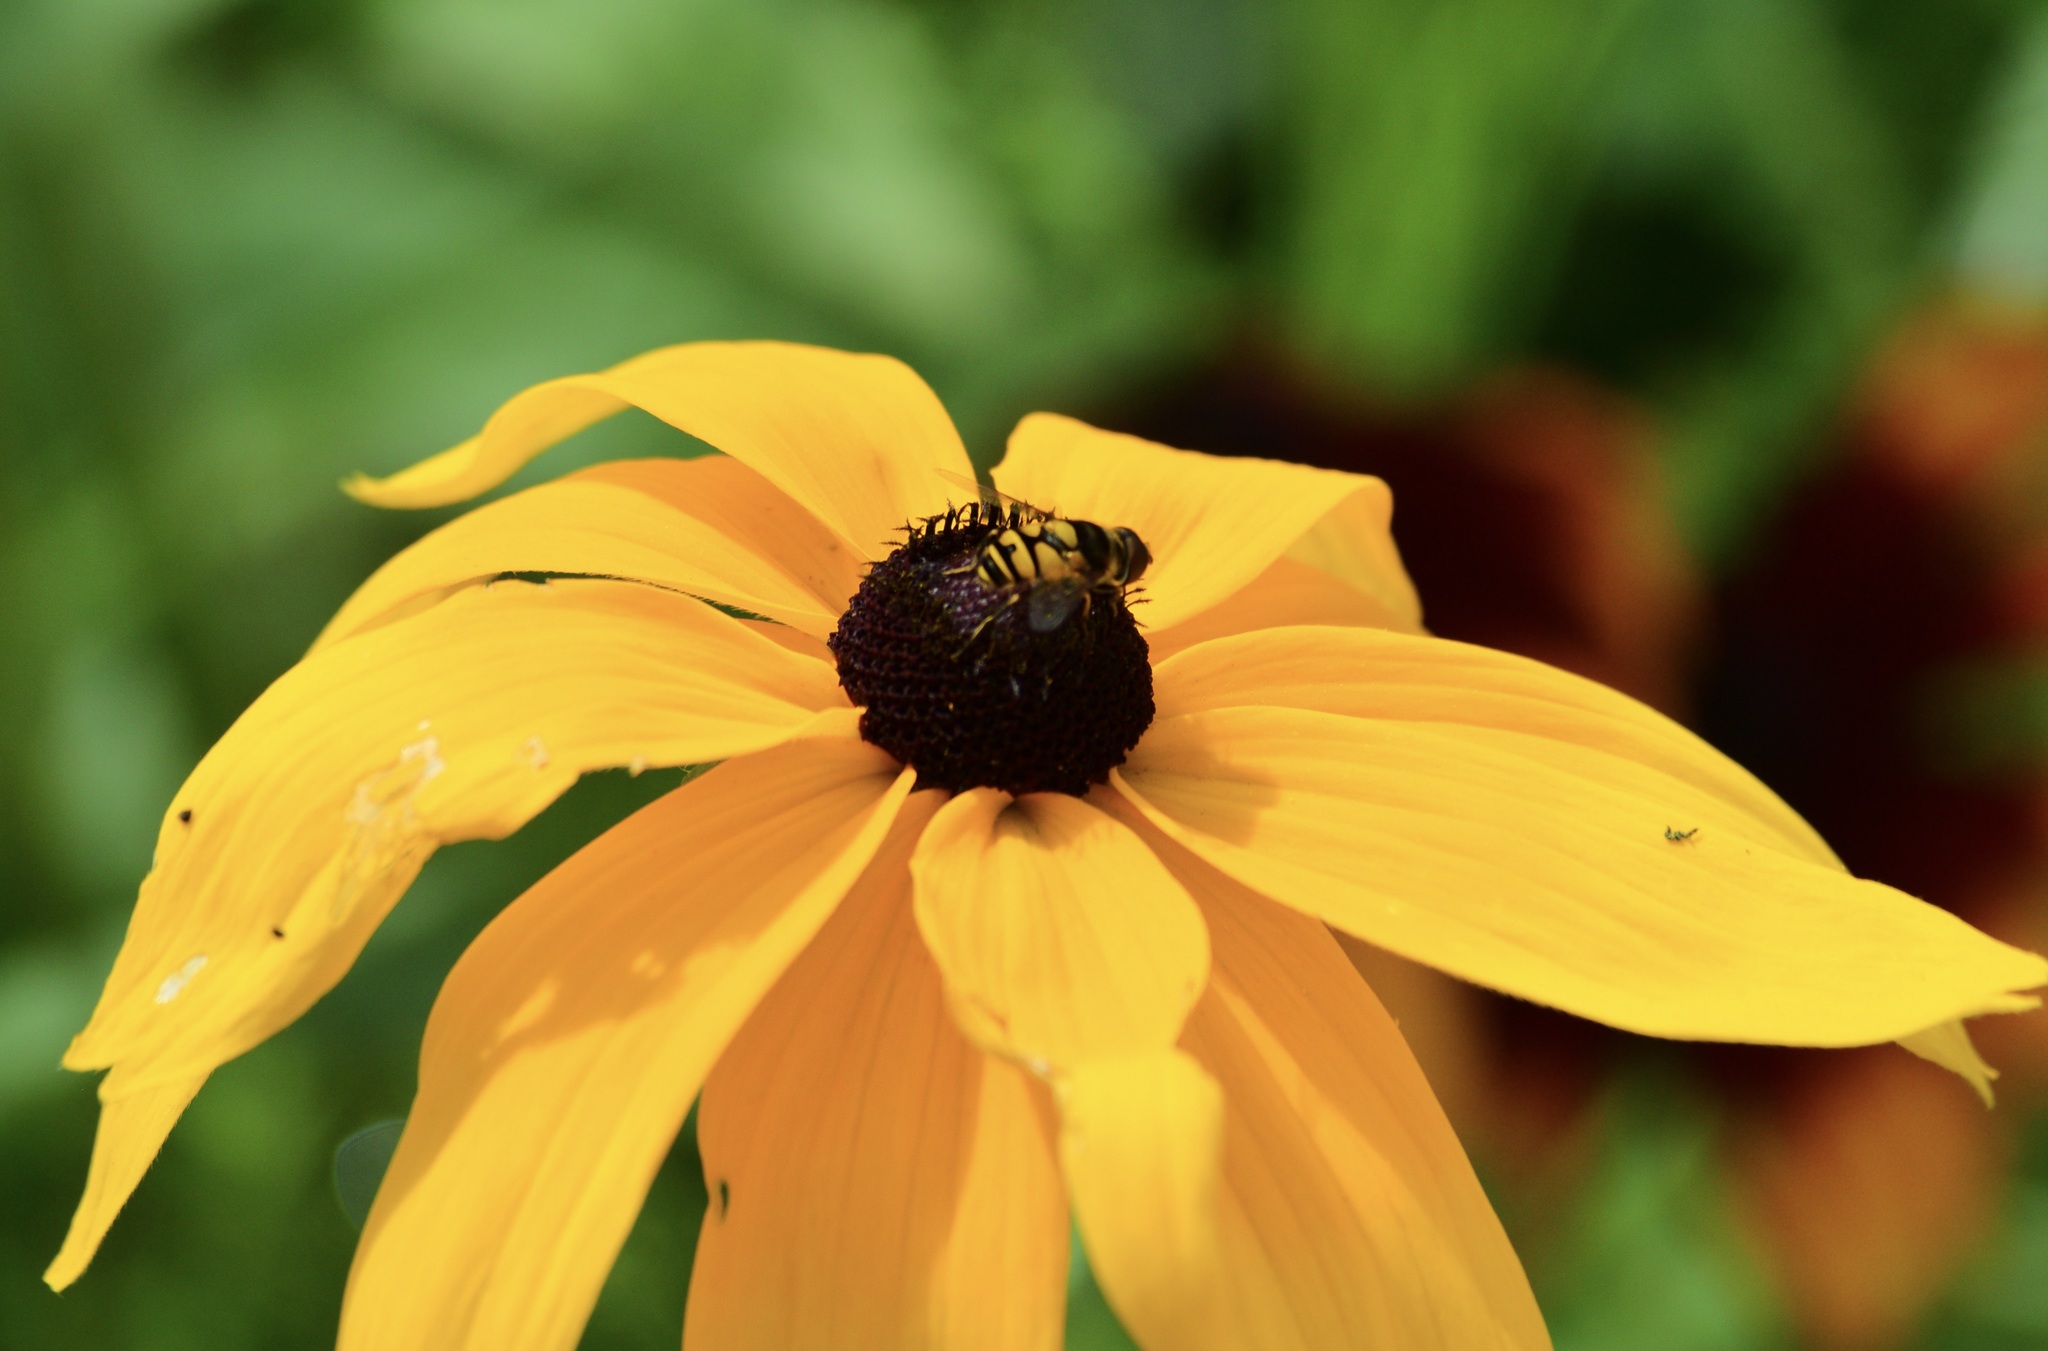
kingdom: Animalia
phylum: Arthropoda
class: Insecta
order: Diptera
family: Syrphidae
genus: Eristalis
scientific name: Eristalis transversa
